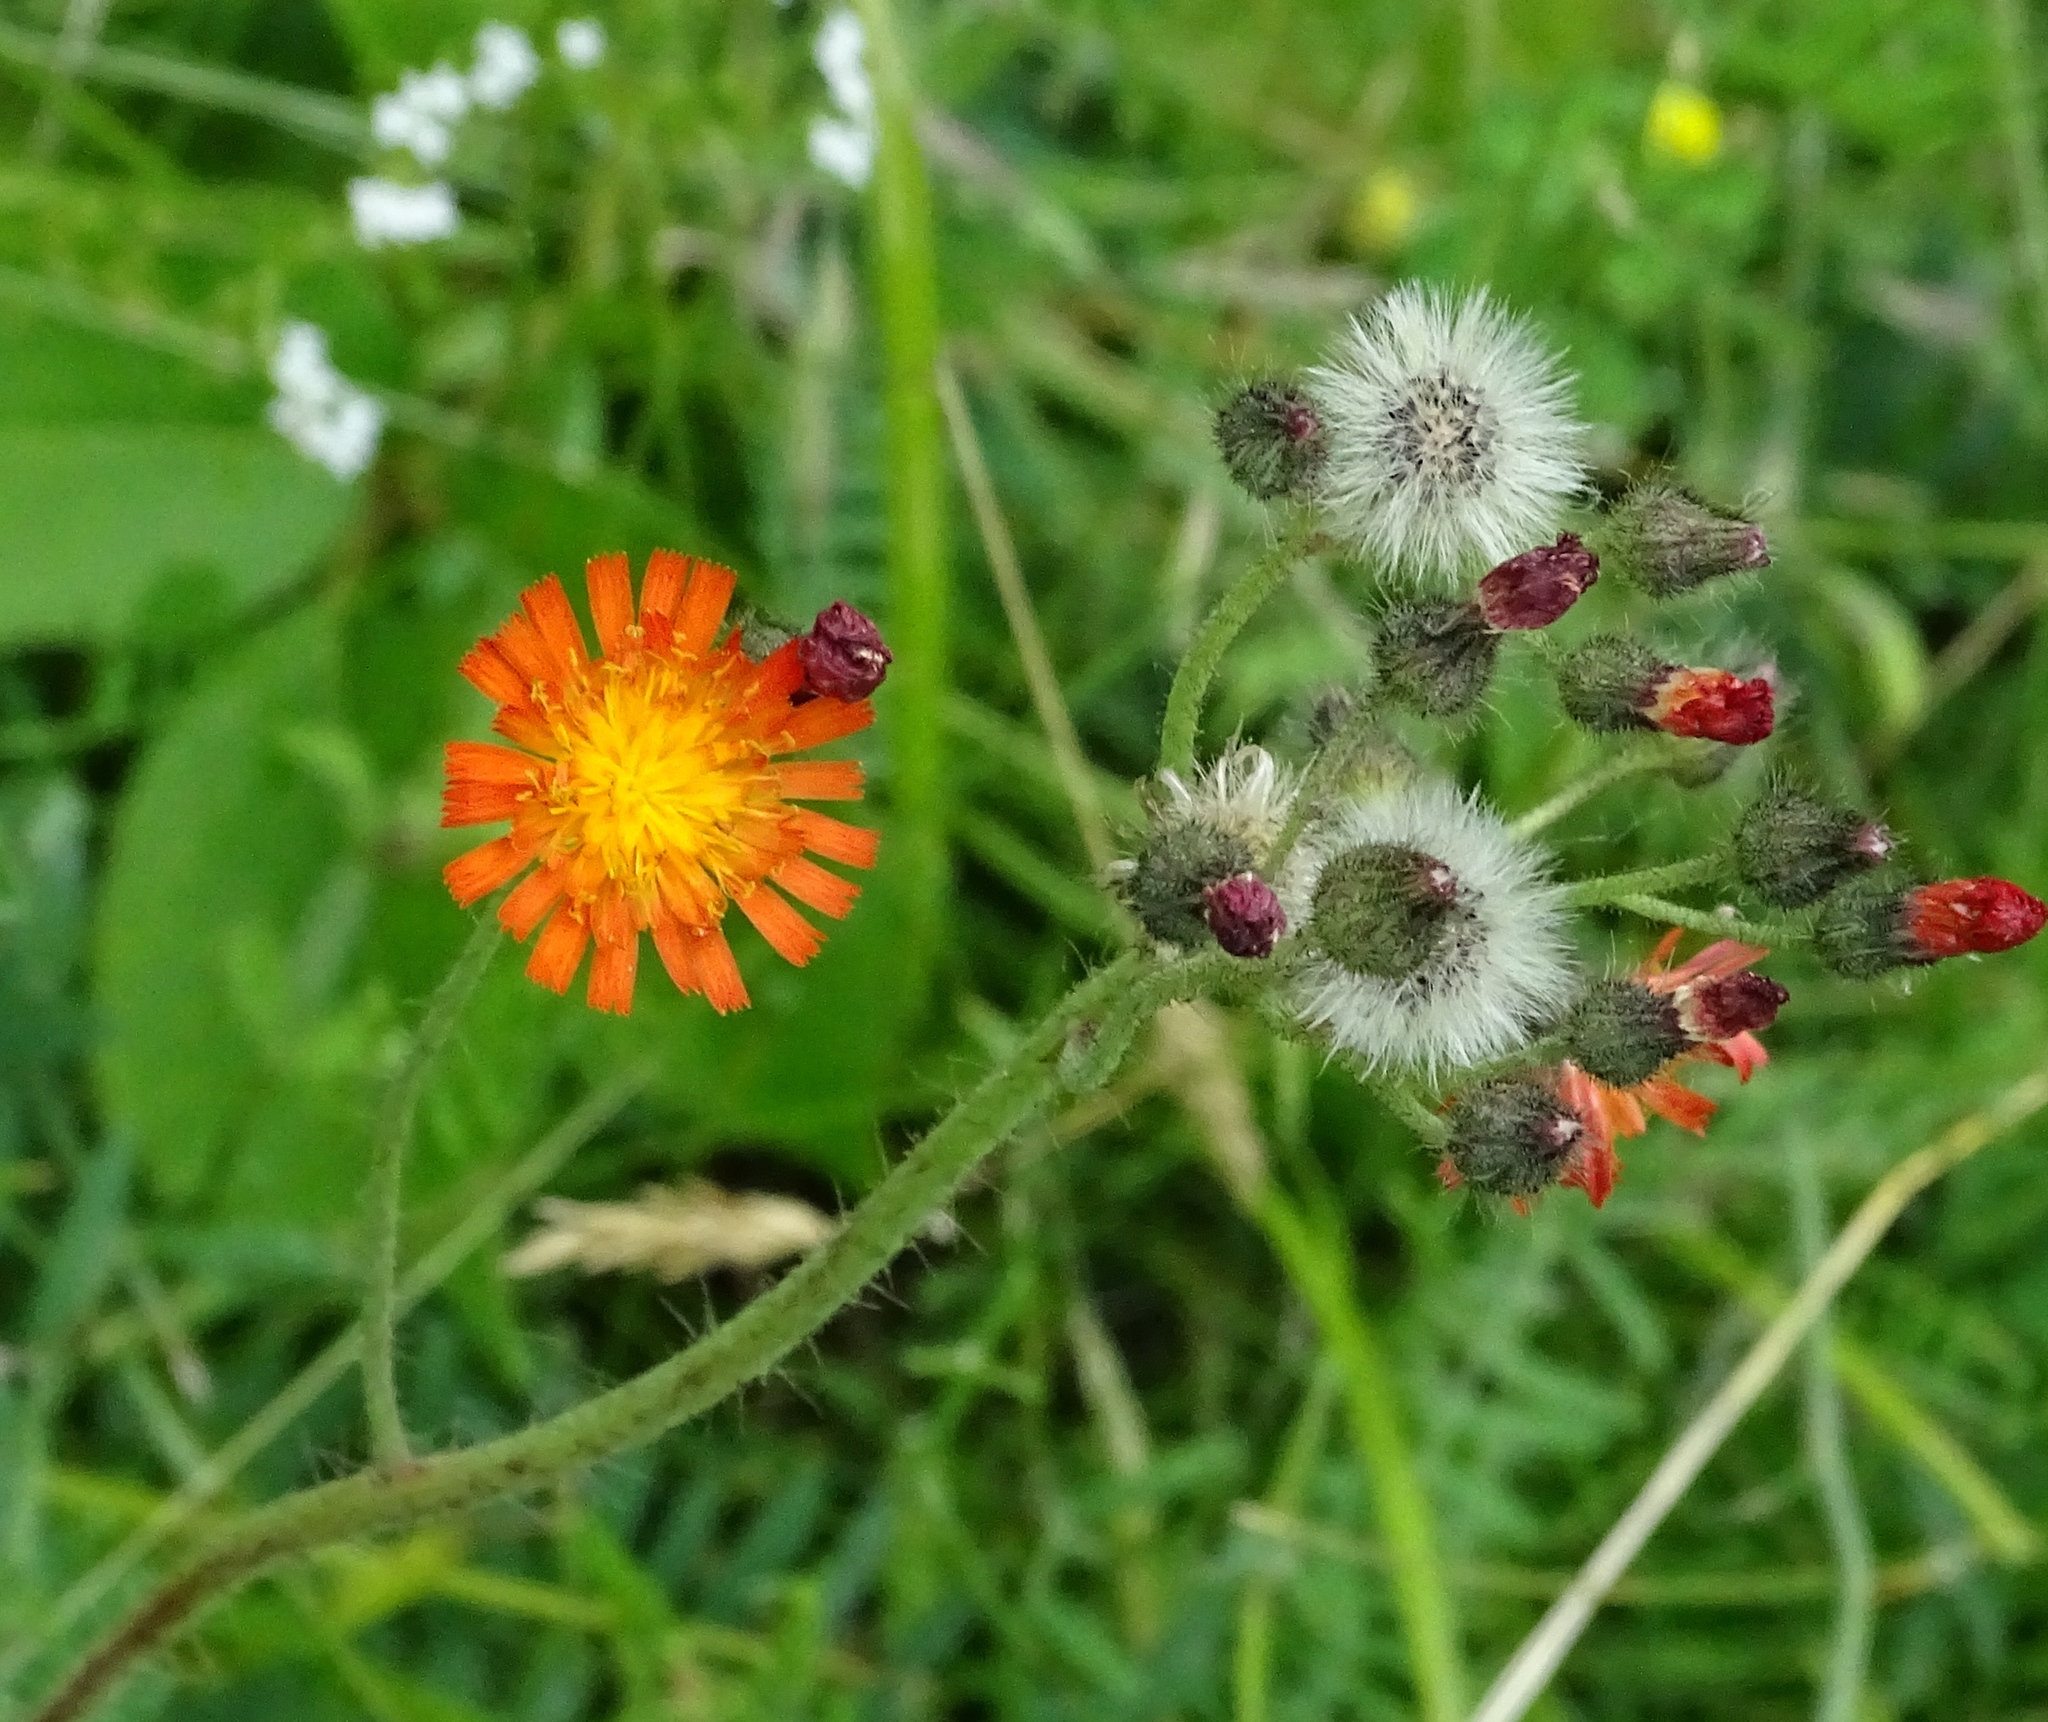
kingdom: Plantae
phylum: Tracheophyta
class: Magnoliopsida
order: Asterales
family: Asteraceae
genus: Pilosella
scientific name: Pilosella aurantiaca
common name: Fox-and-cubs
